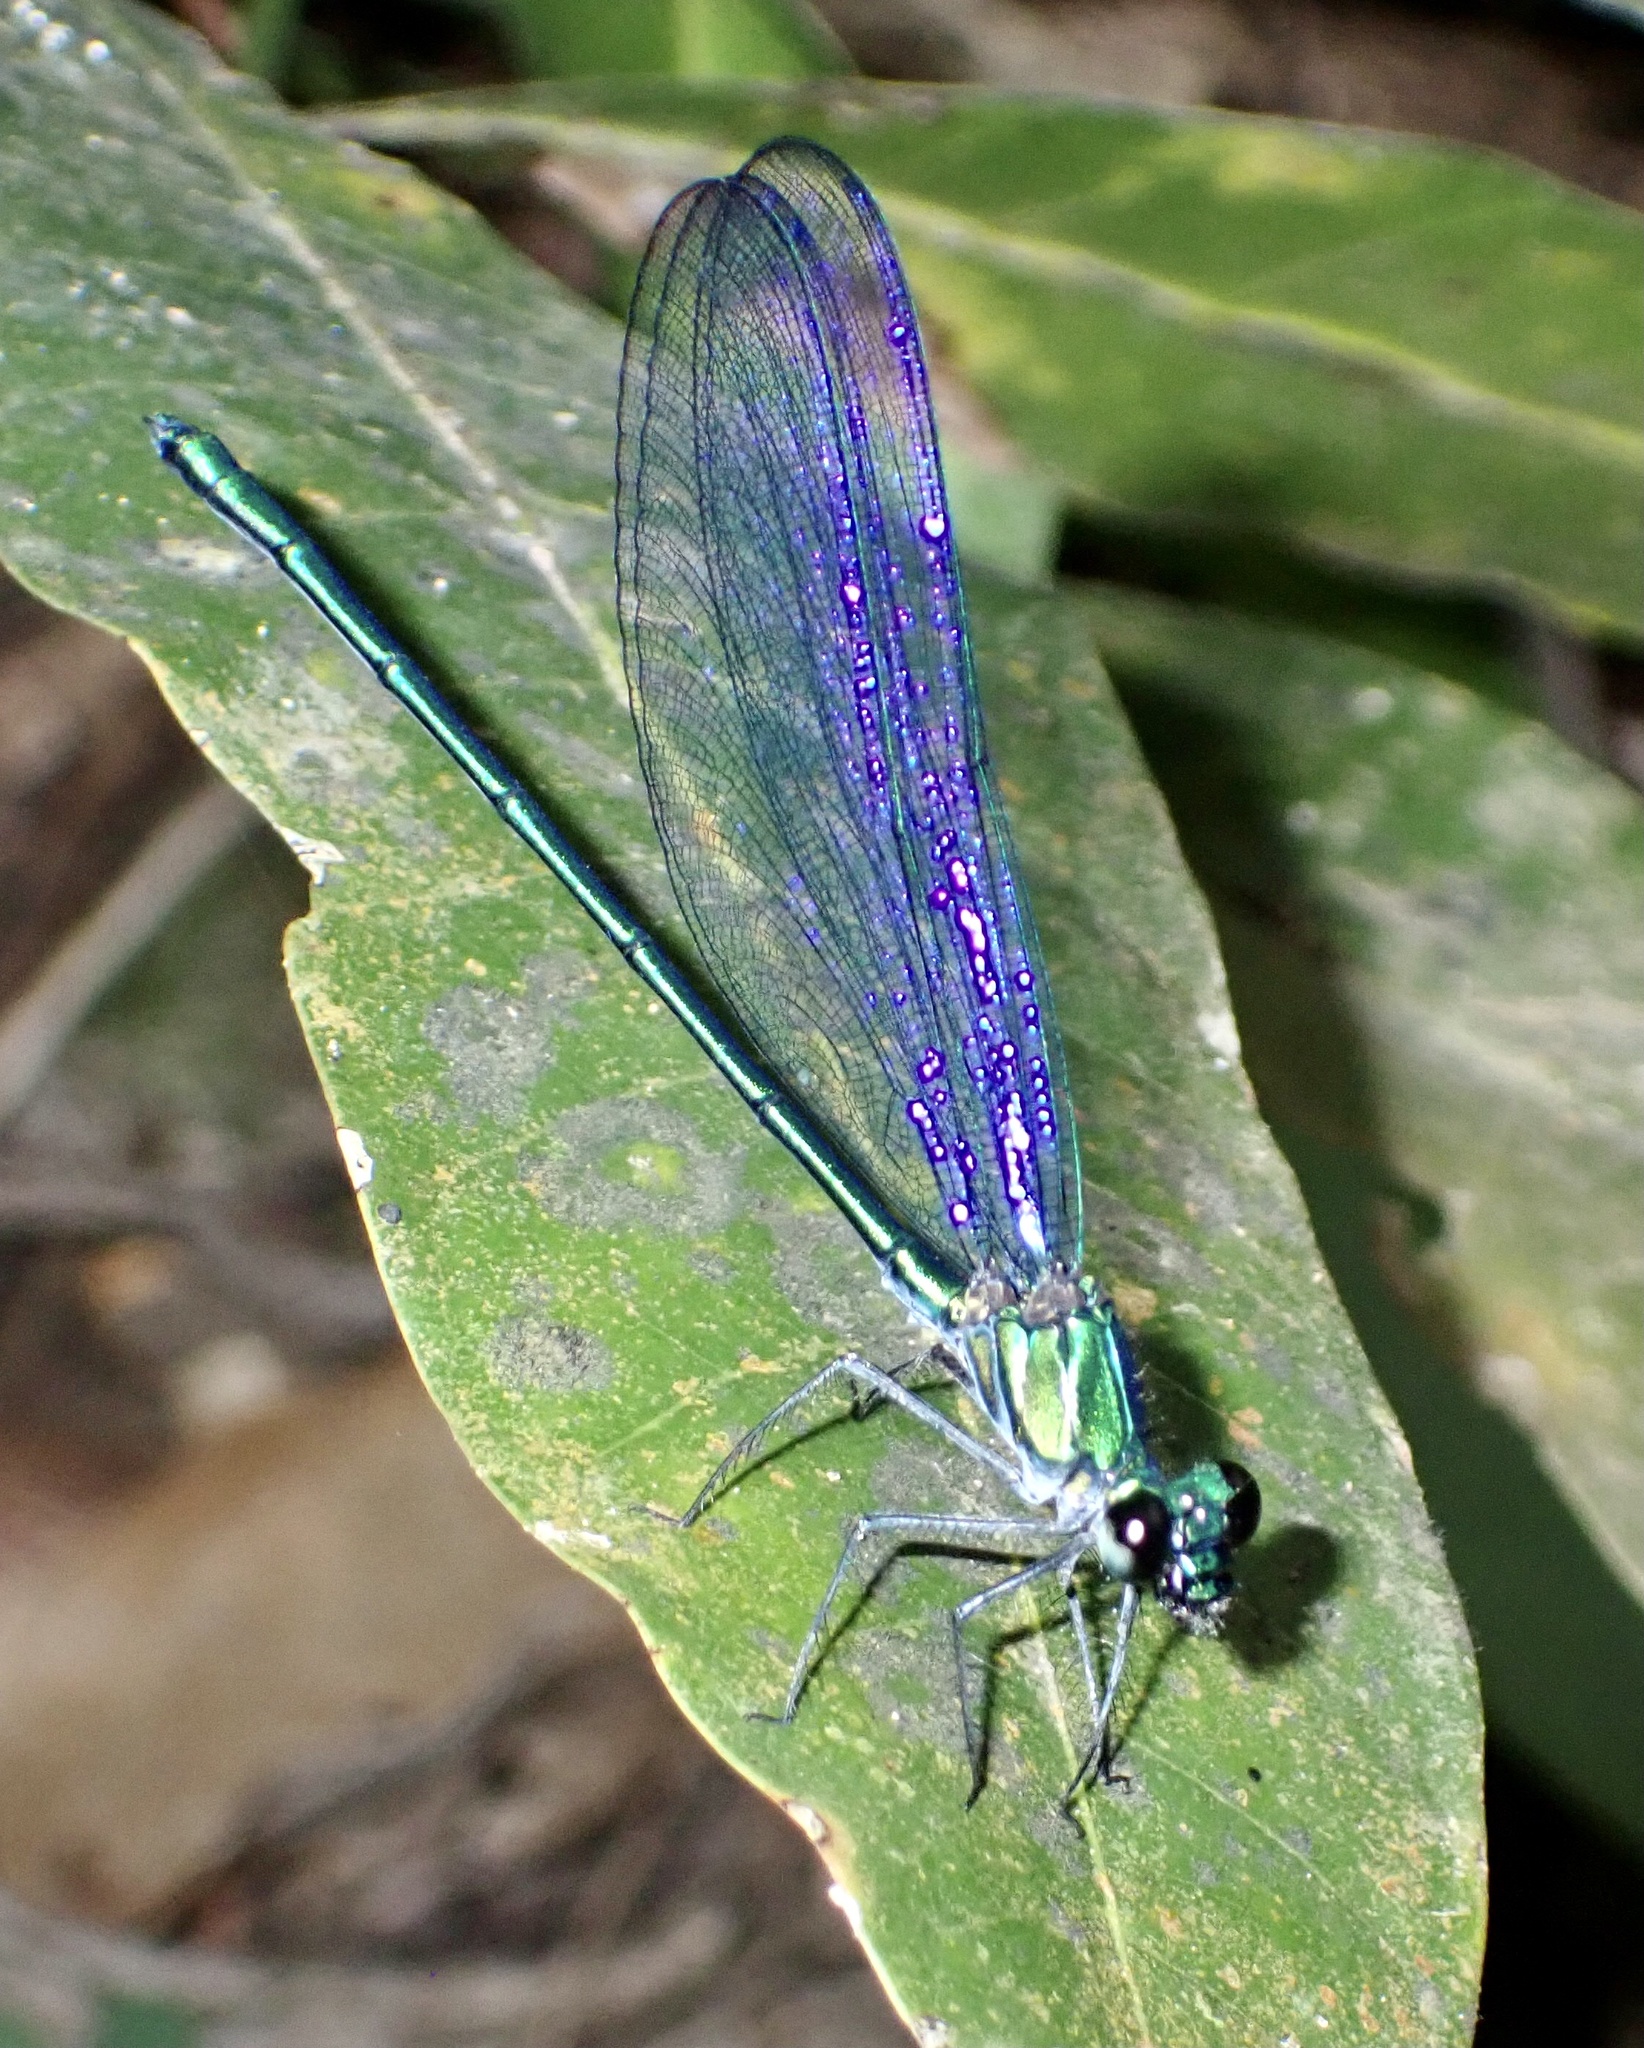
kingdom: Animalia
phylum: Arthropoda
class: Insecta
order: Odonata
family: Calopterygidae
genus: Umma
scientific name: Umma cincta
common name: Broad-winged sparklewing
